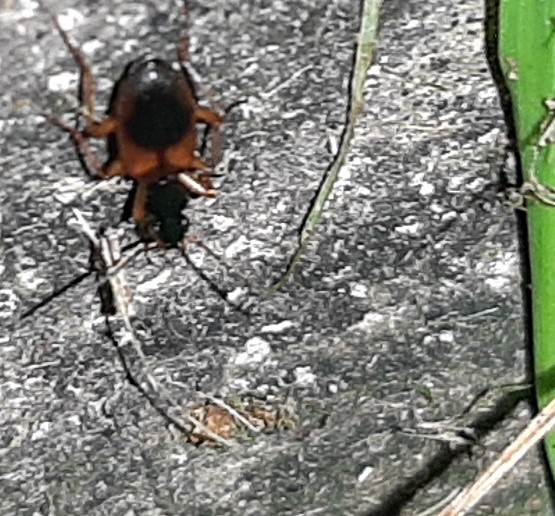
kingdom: Animalia
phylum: Arthropoda
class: Insecta
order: Coleoptera
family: Carabidae
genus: Anchomenus
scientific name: Anchomenus dorsalis
